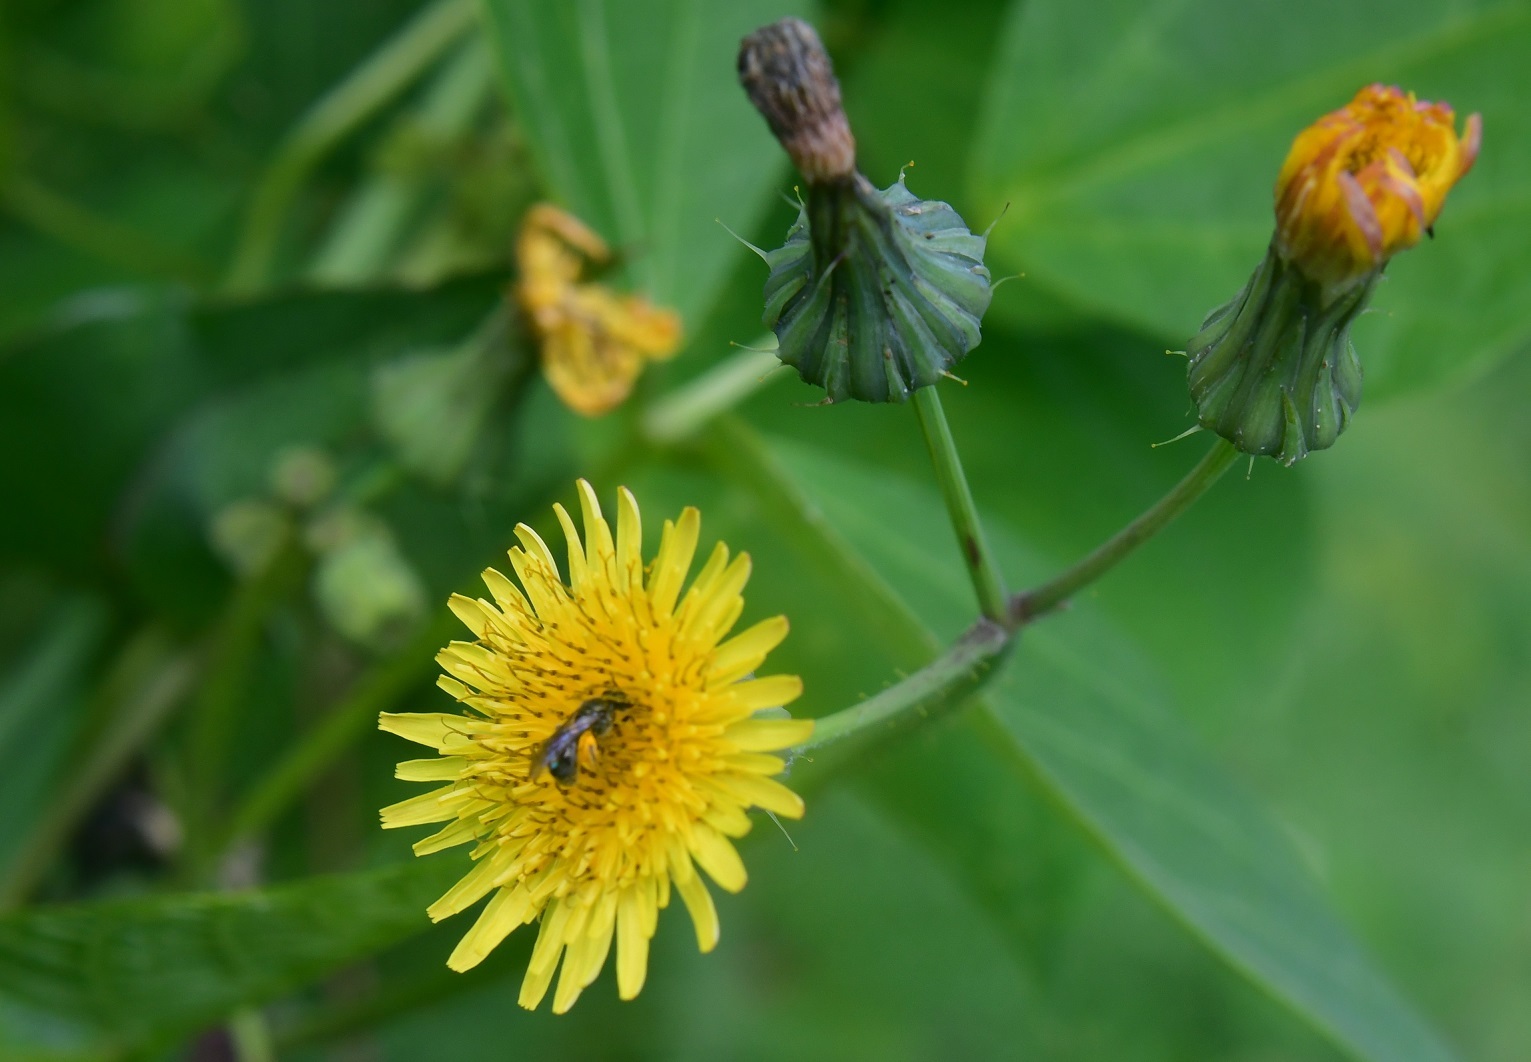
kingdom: Plantae
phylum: Tracheophyta
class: Magnoliopsida
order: Asterales
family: Asteraceae
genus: Sonchus
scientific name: Sonchus oleraceus
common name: Common sowthistle
